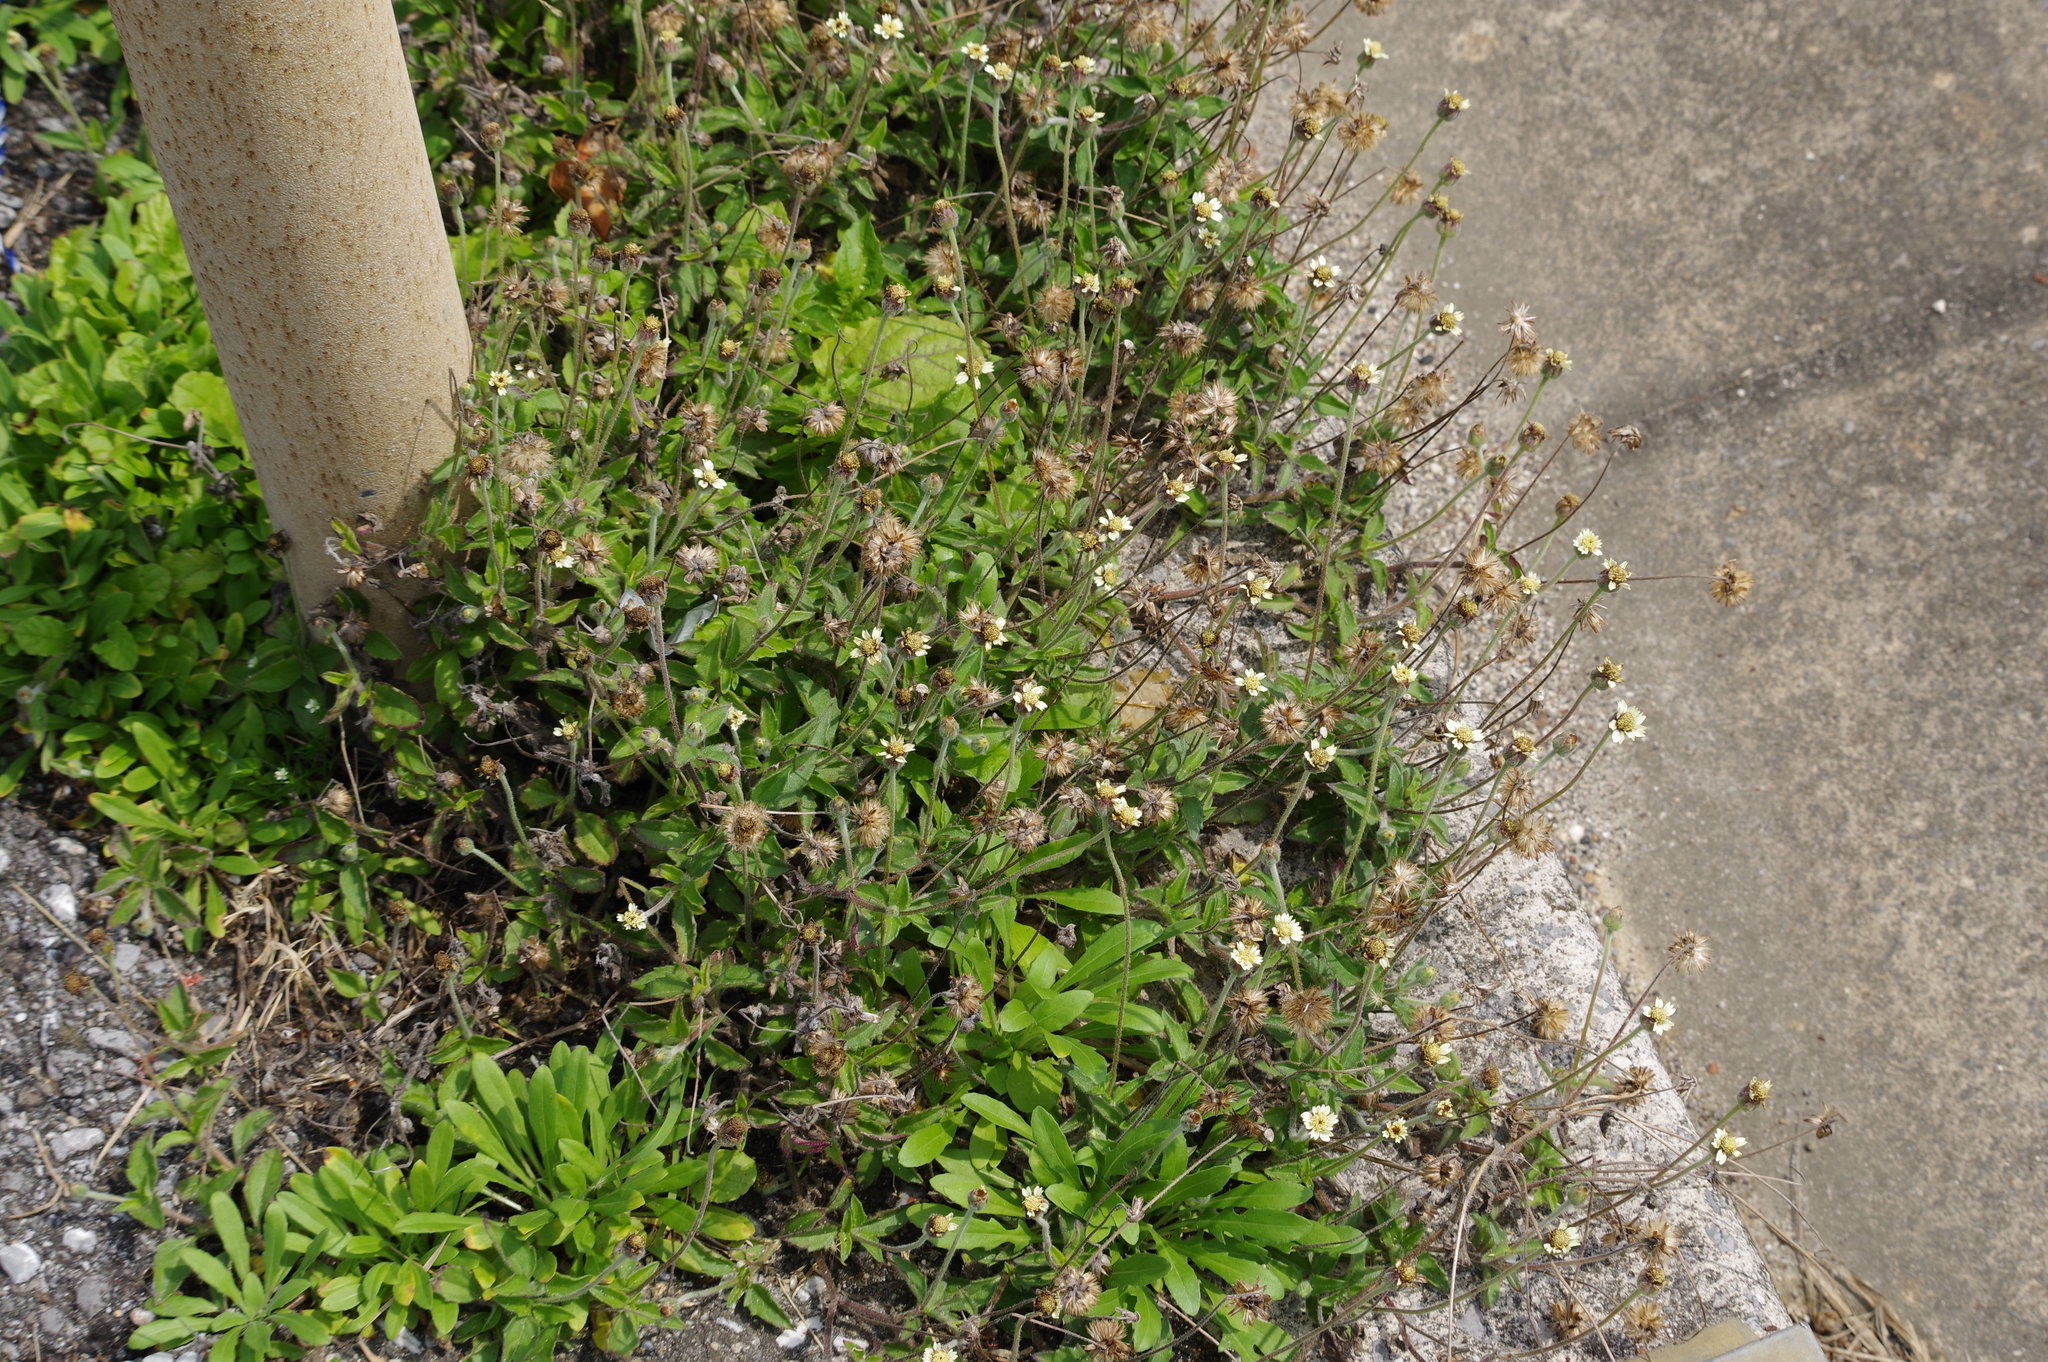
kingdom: Plantae
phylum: Tracheophyta
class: Magnoliopsida
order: Asterales
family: Asteraceae
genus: Tridax
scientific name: Tridax procumbens
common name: Coatbuttons
